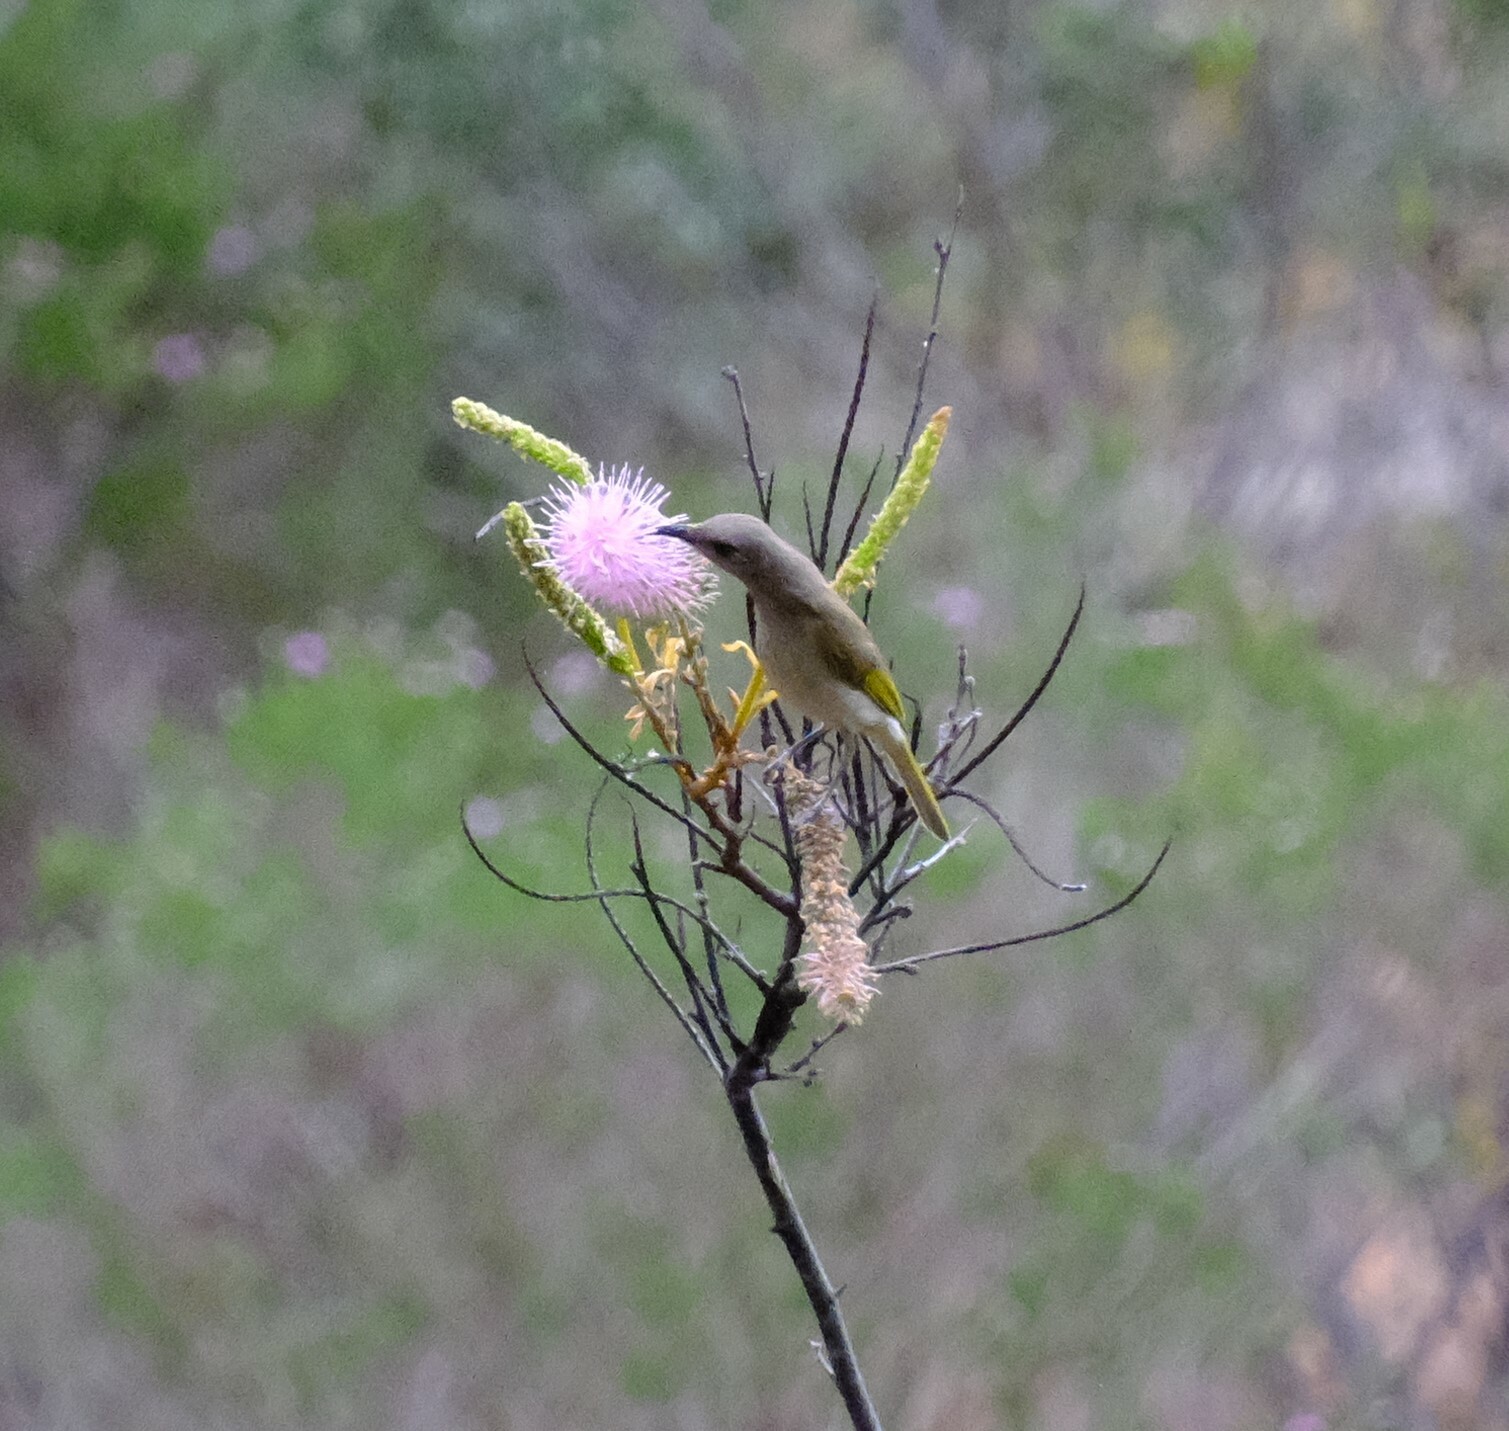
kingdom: Animalia
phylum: Chordata
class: Aves
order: Passeriformes
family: Meliphagidae
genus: Lichmera
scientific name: Lichmera indistincta
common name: Brown honeyeater
